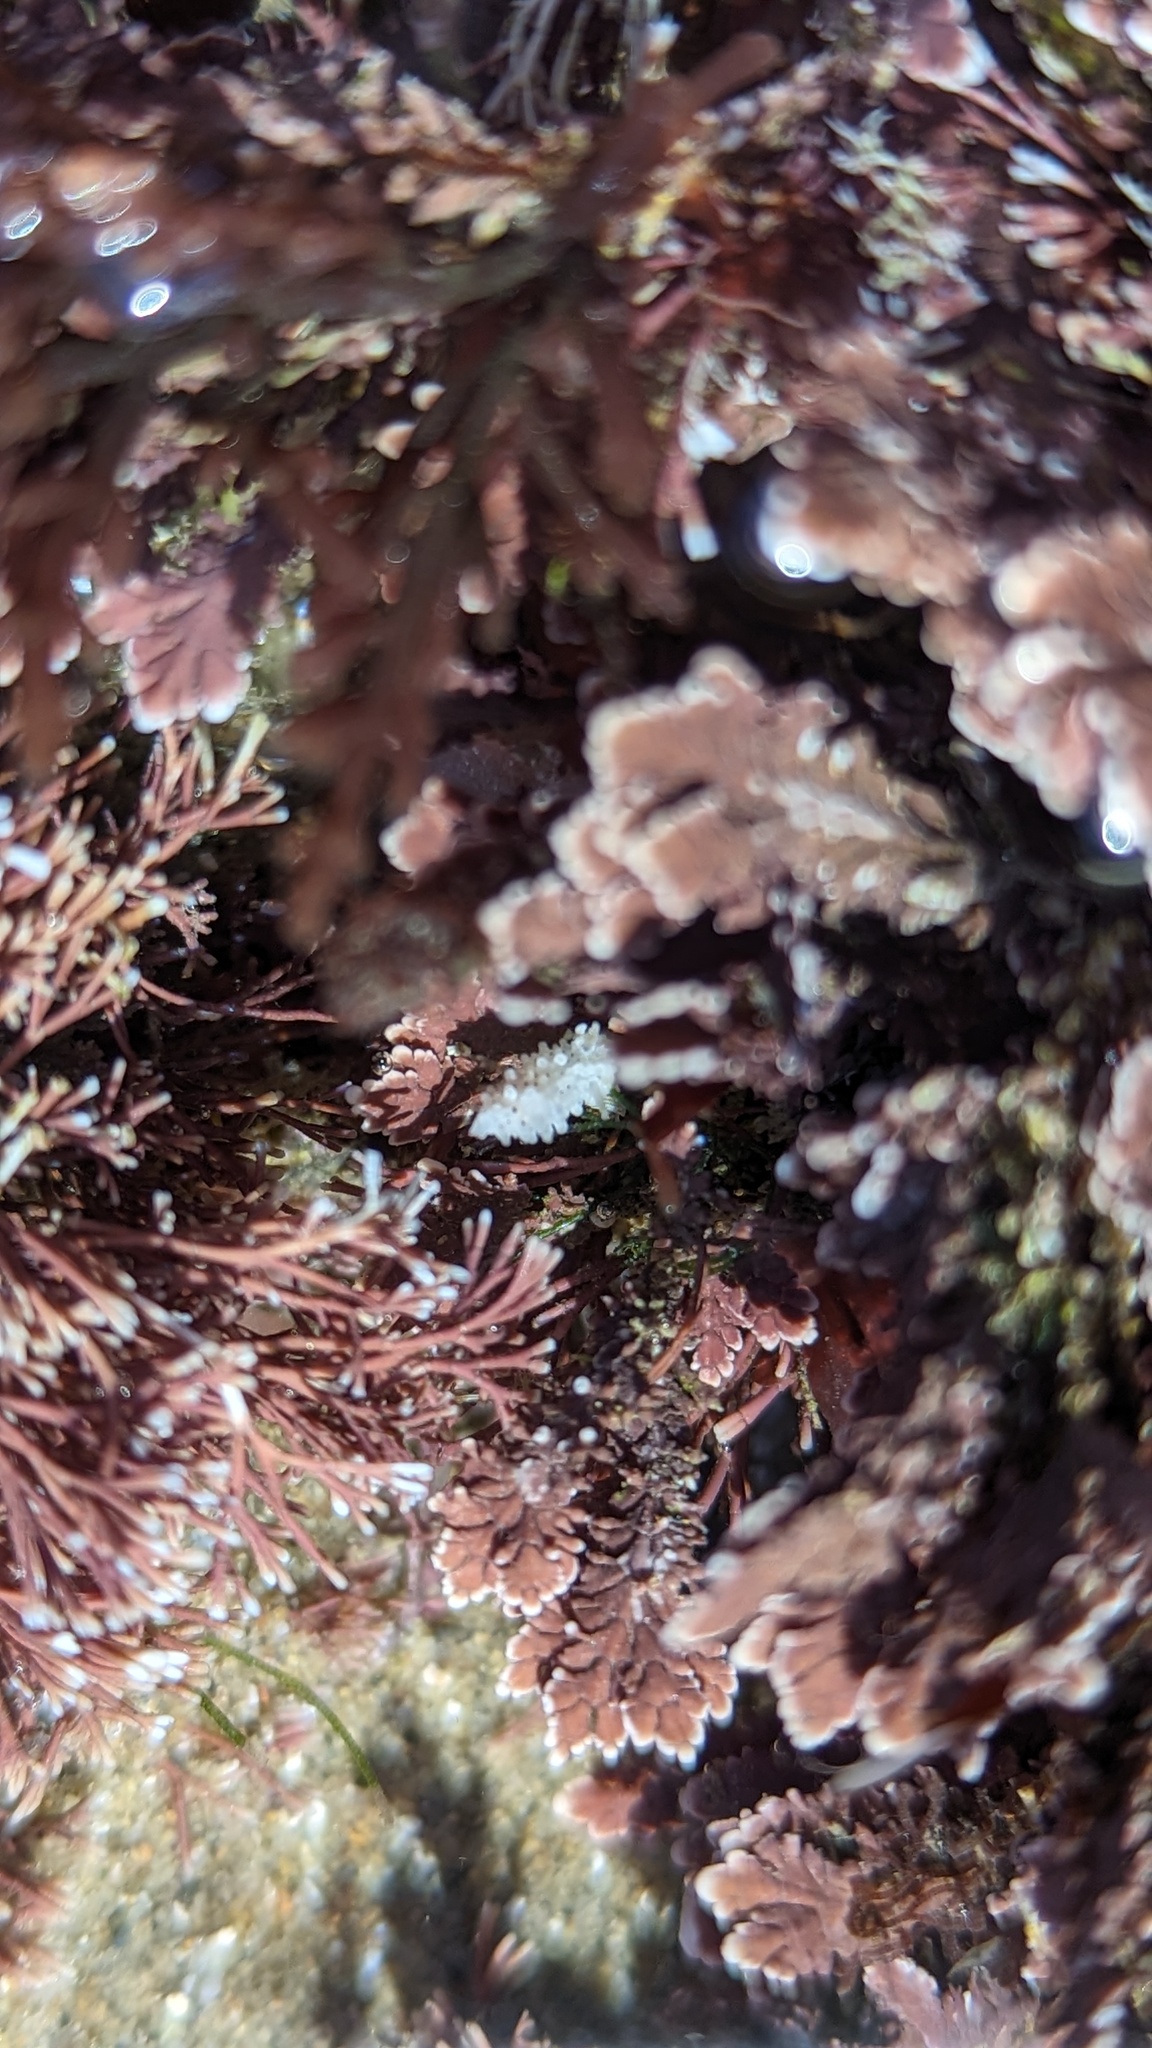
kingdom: Animalia
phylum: Mollusca
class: Gastropoda
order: Nudibranchia
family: Aegiridae
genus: Aegires
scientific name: Aegires albopunctatus
